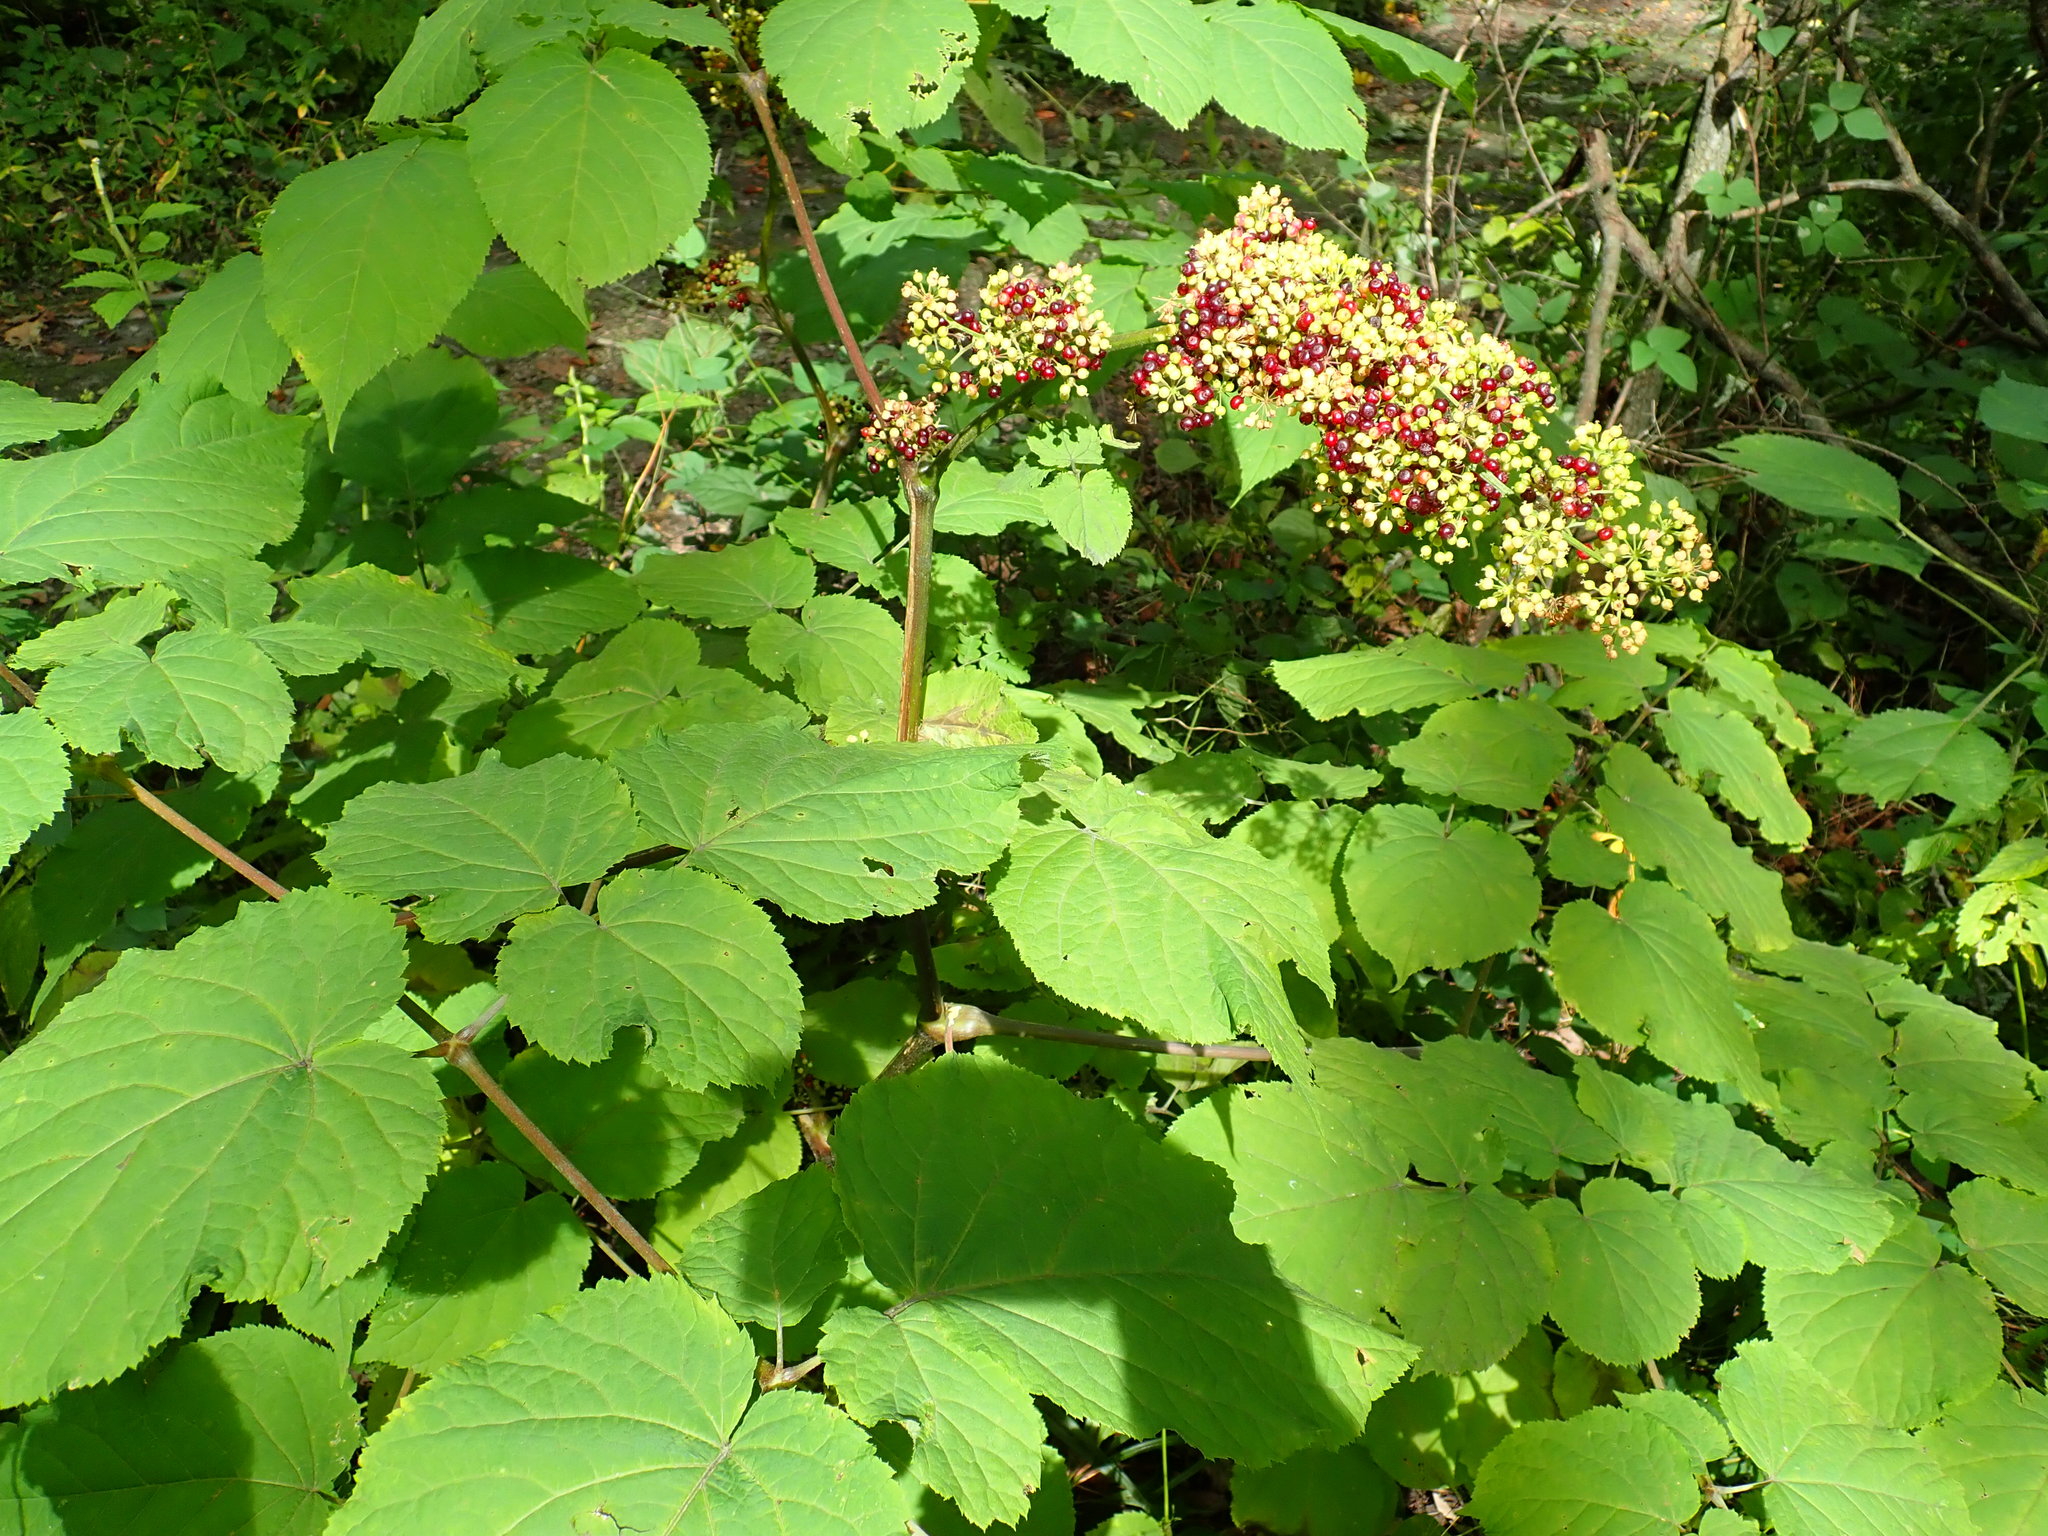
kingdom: Plantae
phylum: Tracheophyta
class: Magnoliopsida
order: Apiales
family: Araliaceae
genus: Aralia
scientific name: Aralia racemosa
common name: American-spikenard
